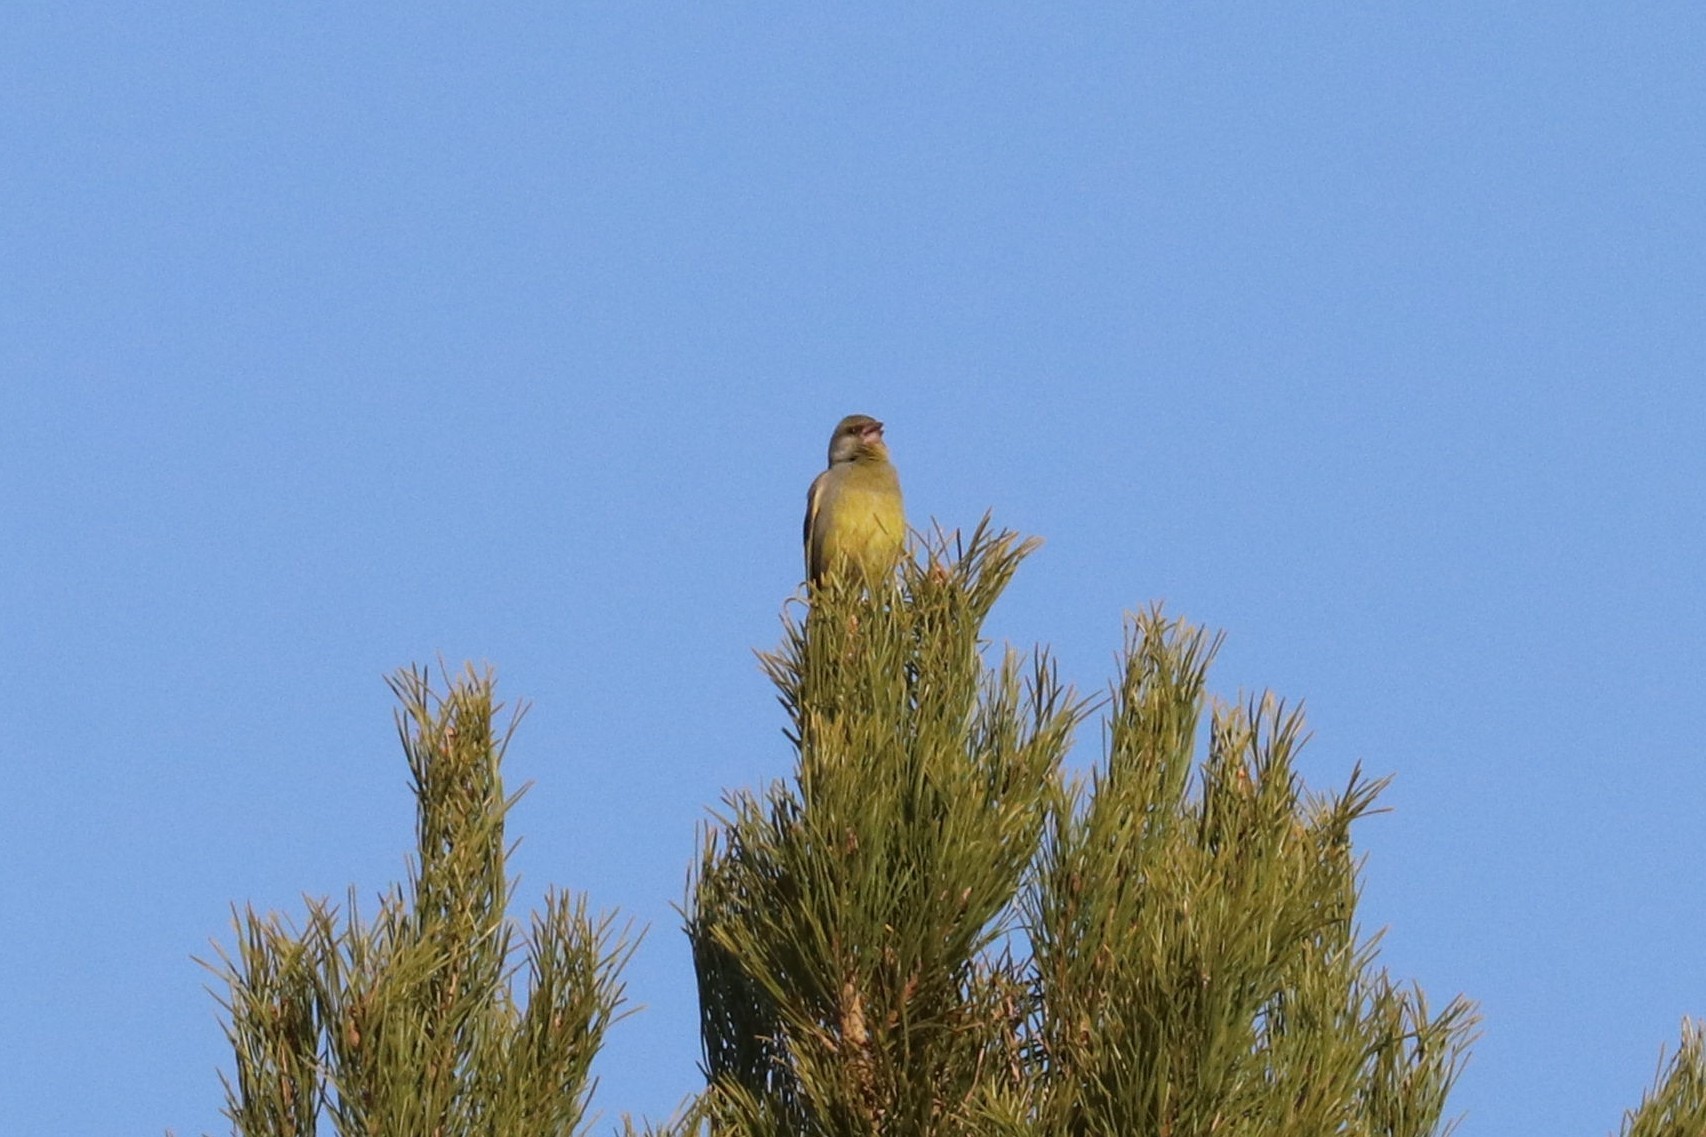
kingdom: Plantae
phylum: Tracheophyta
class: Liliopsida
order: Poales
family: Poaceae
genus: Chloris
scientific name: Chloris chloris
